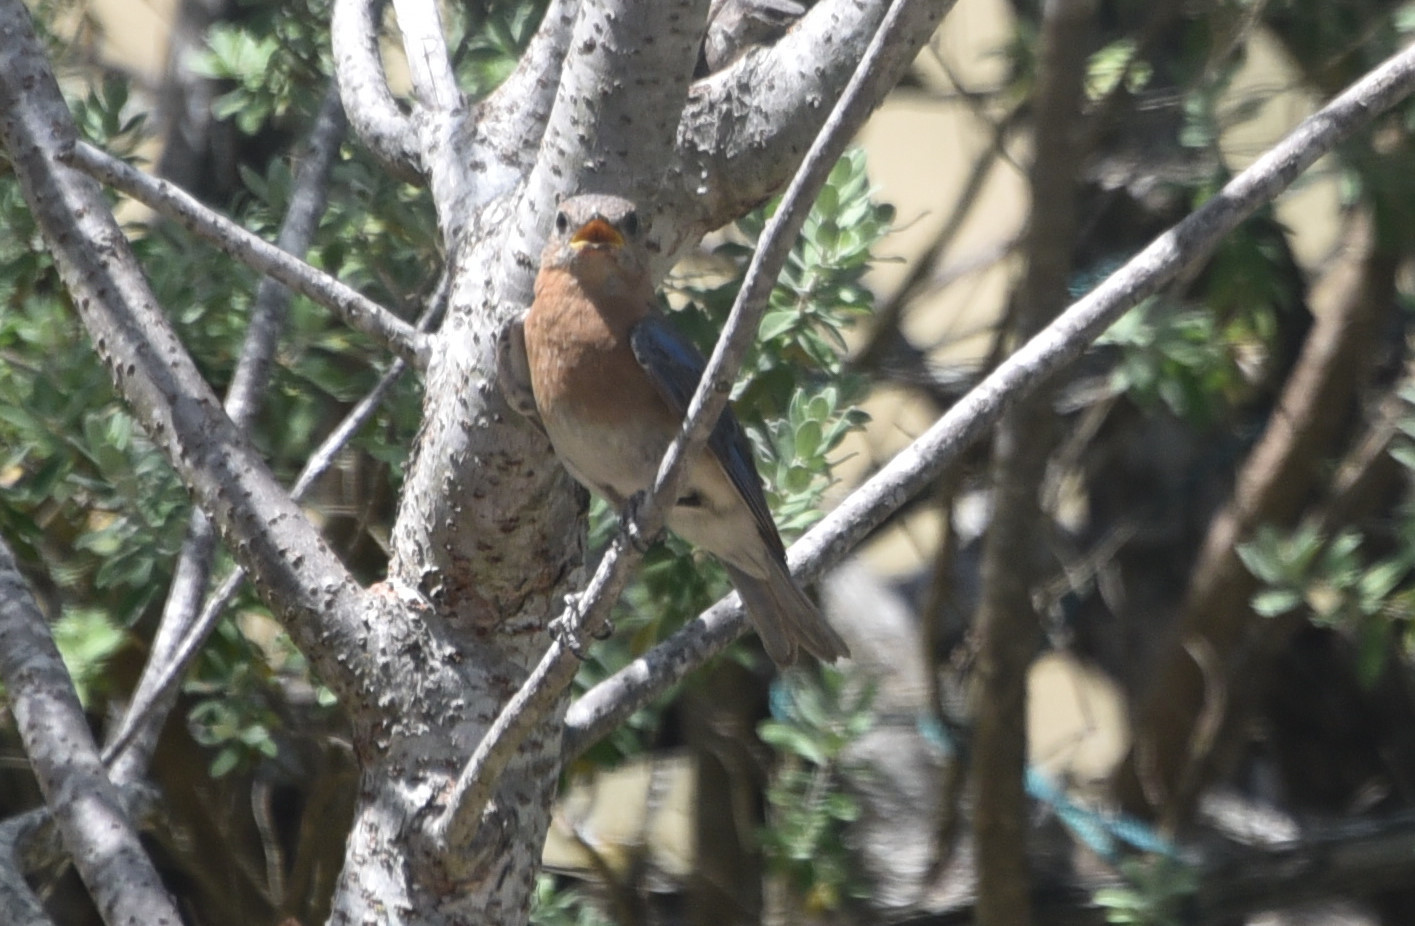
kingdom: Animalia
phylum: Chordata
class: Aves
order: Passeriformes
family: Turdidae
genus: Sialia
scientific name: Sialia sialis
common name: Eastern bluebird
